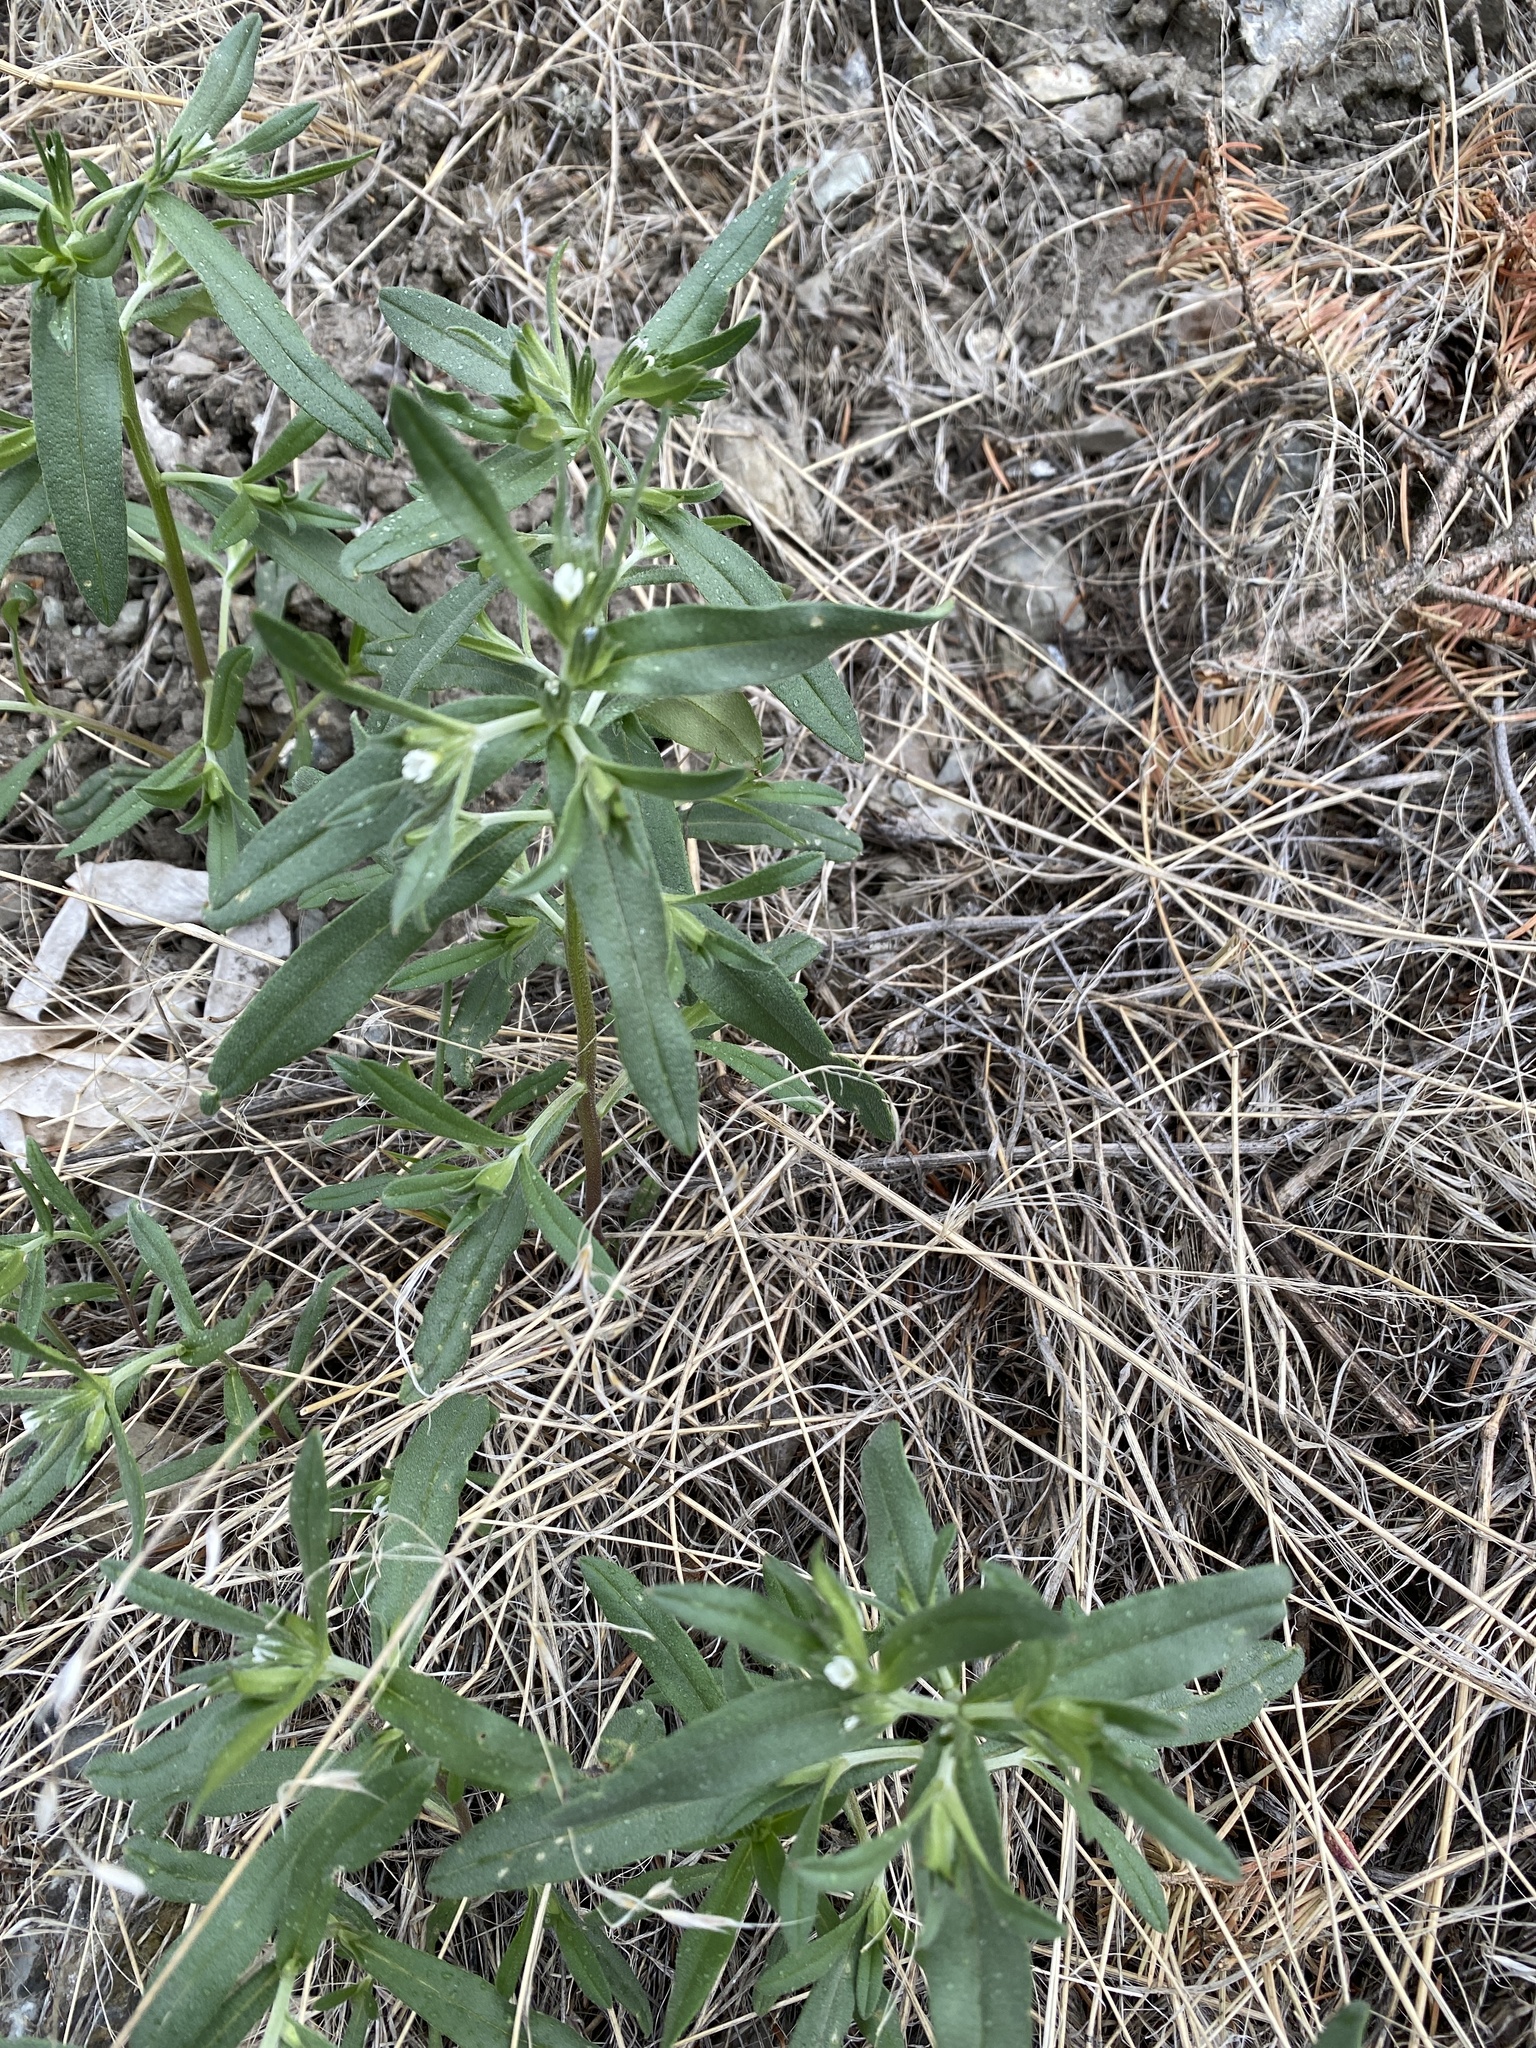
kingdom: Plantae
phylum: Tracheophyta
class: Magnoliopsida
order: Boraginales
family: Boraginaceae
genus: Buglossoides
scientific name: Buglossoides arvensis
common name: Corn gromwell
